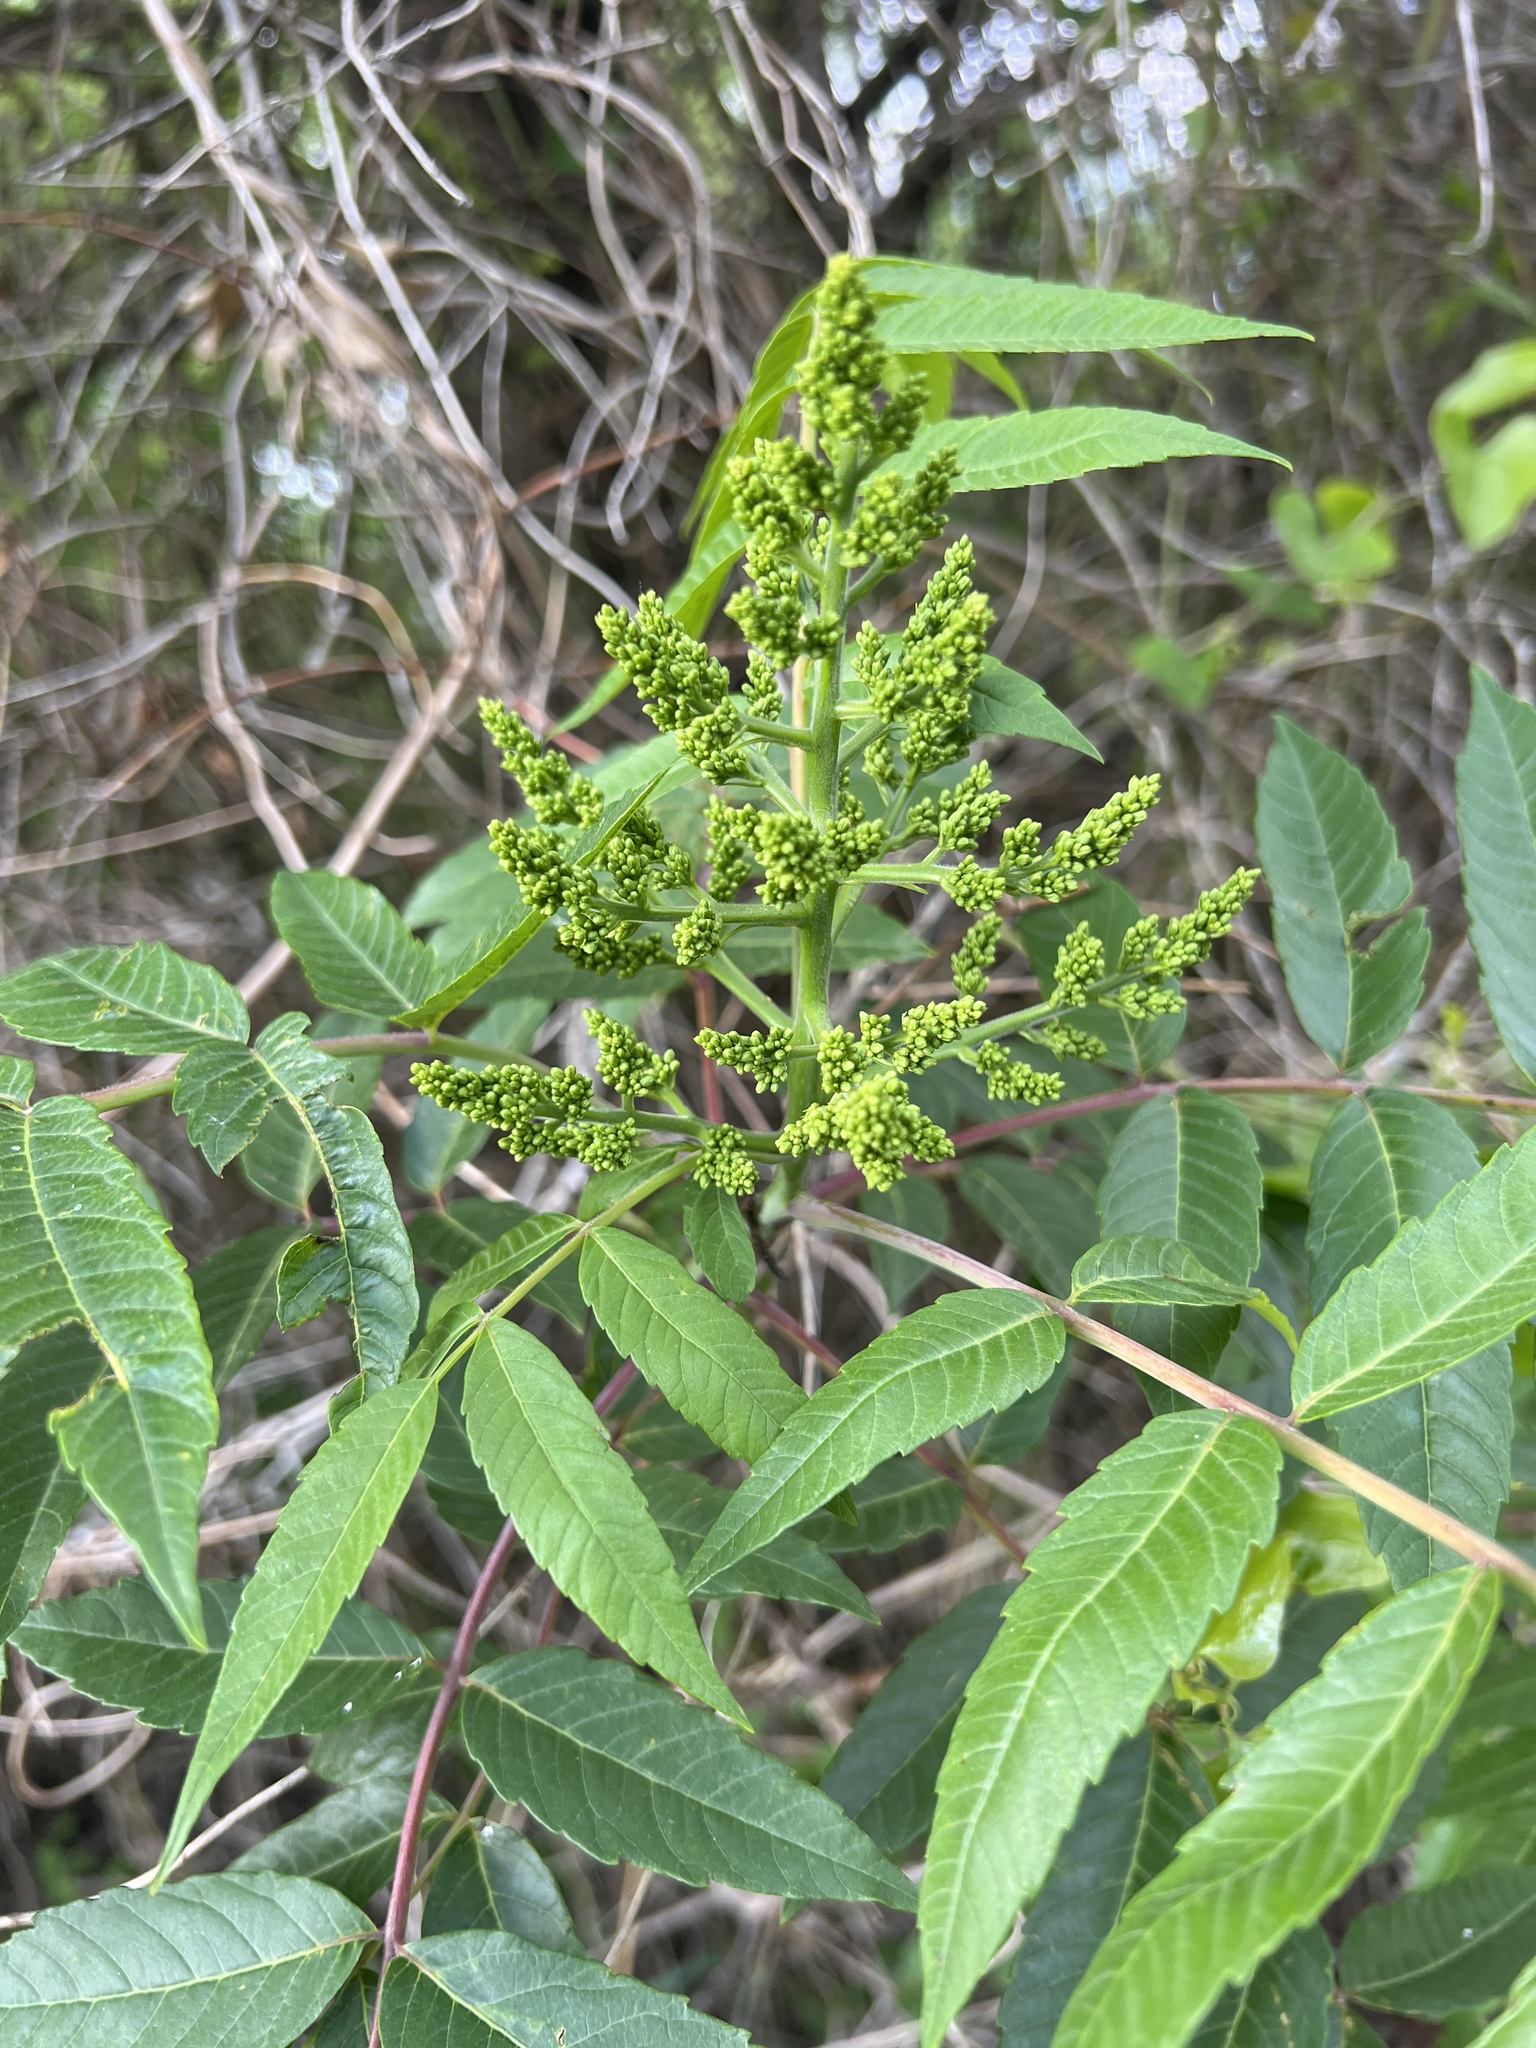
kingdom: Plantae
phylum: Tracheophyta
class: Magnoliopsida
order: Sapindales
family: Anacardiaceae
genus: Rhus
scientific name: Rhus glabra
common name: Scarlet sumac
